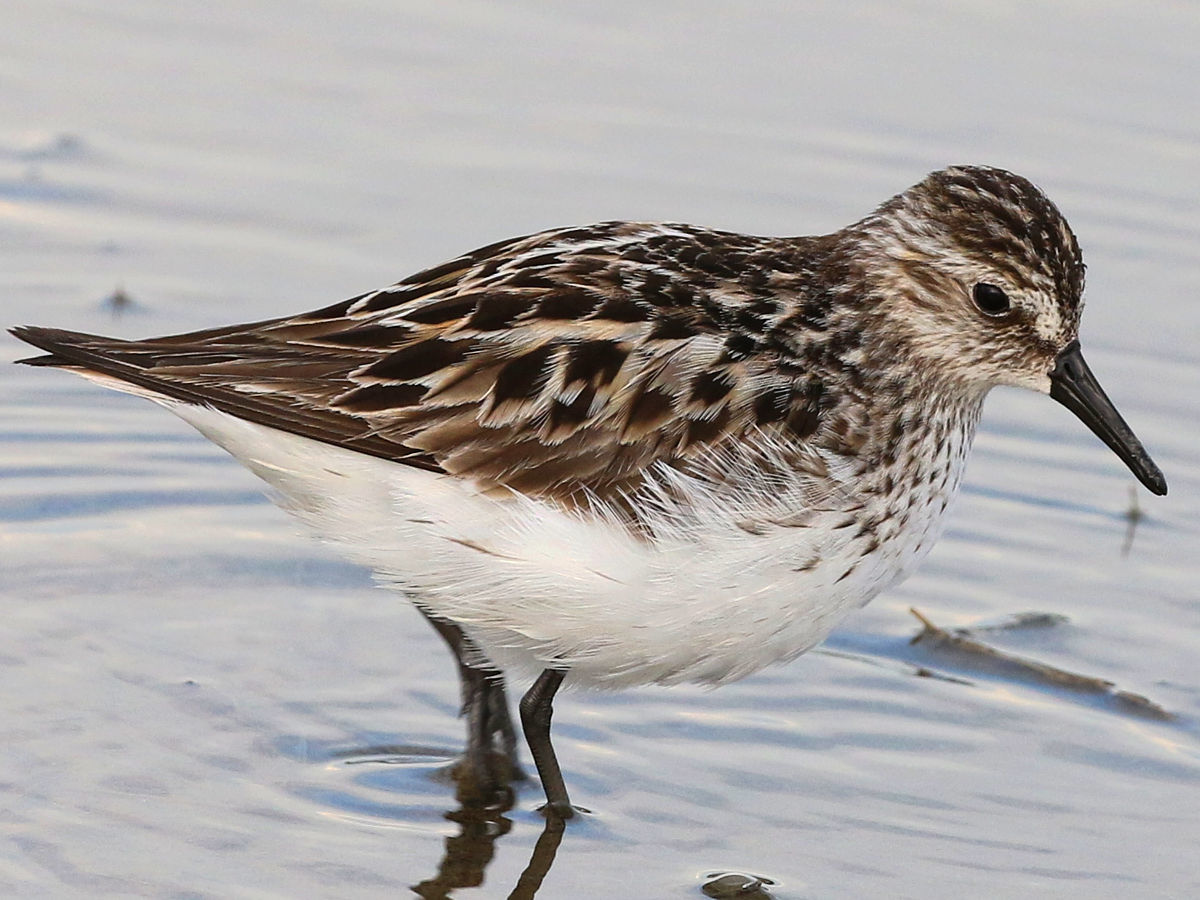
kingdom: Animalia
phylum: Chordata
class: Aves
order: Charadriiformes
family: Scolopacidae
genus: Calidris
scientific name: Calidris pusilla
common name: Semipalmated sandpiper
